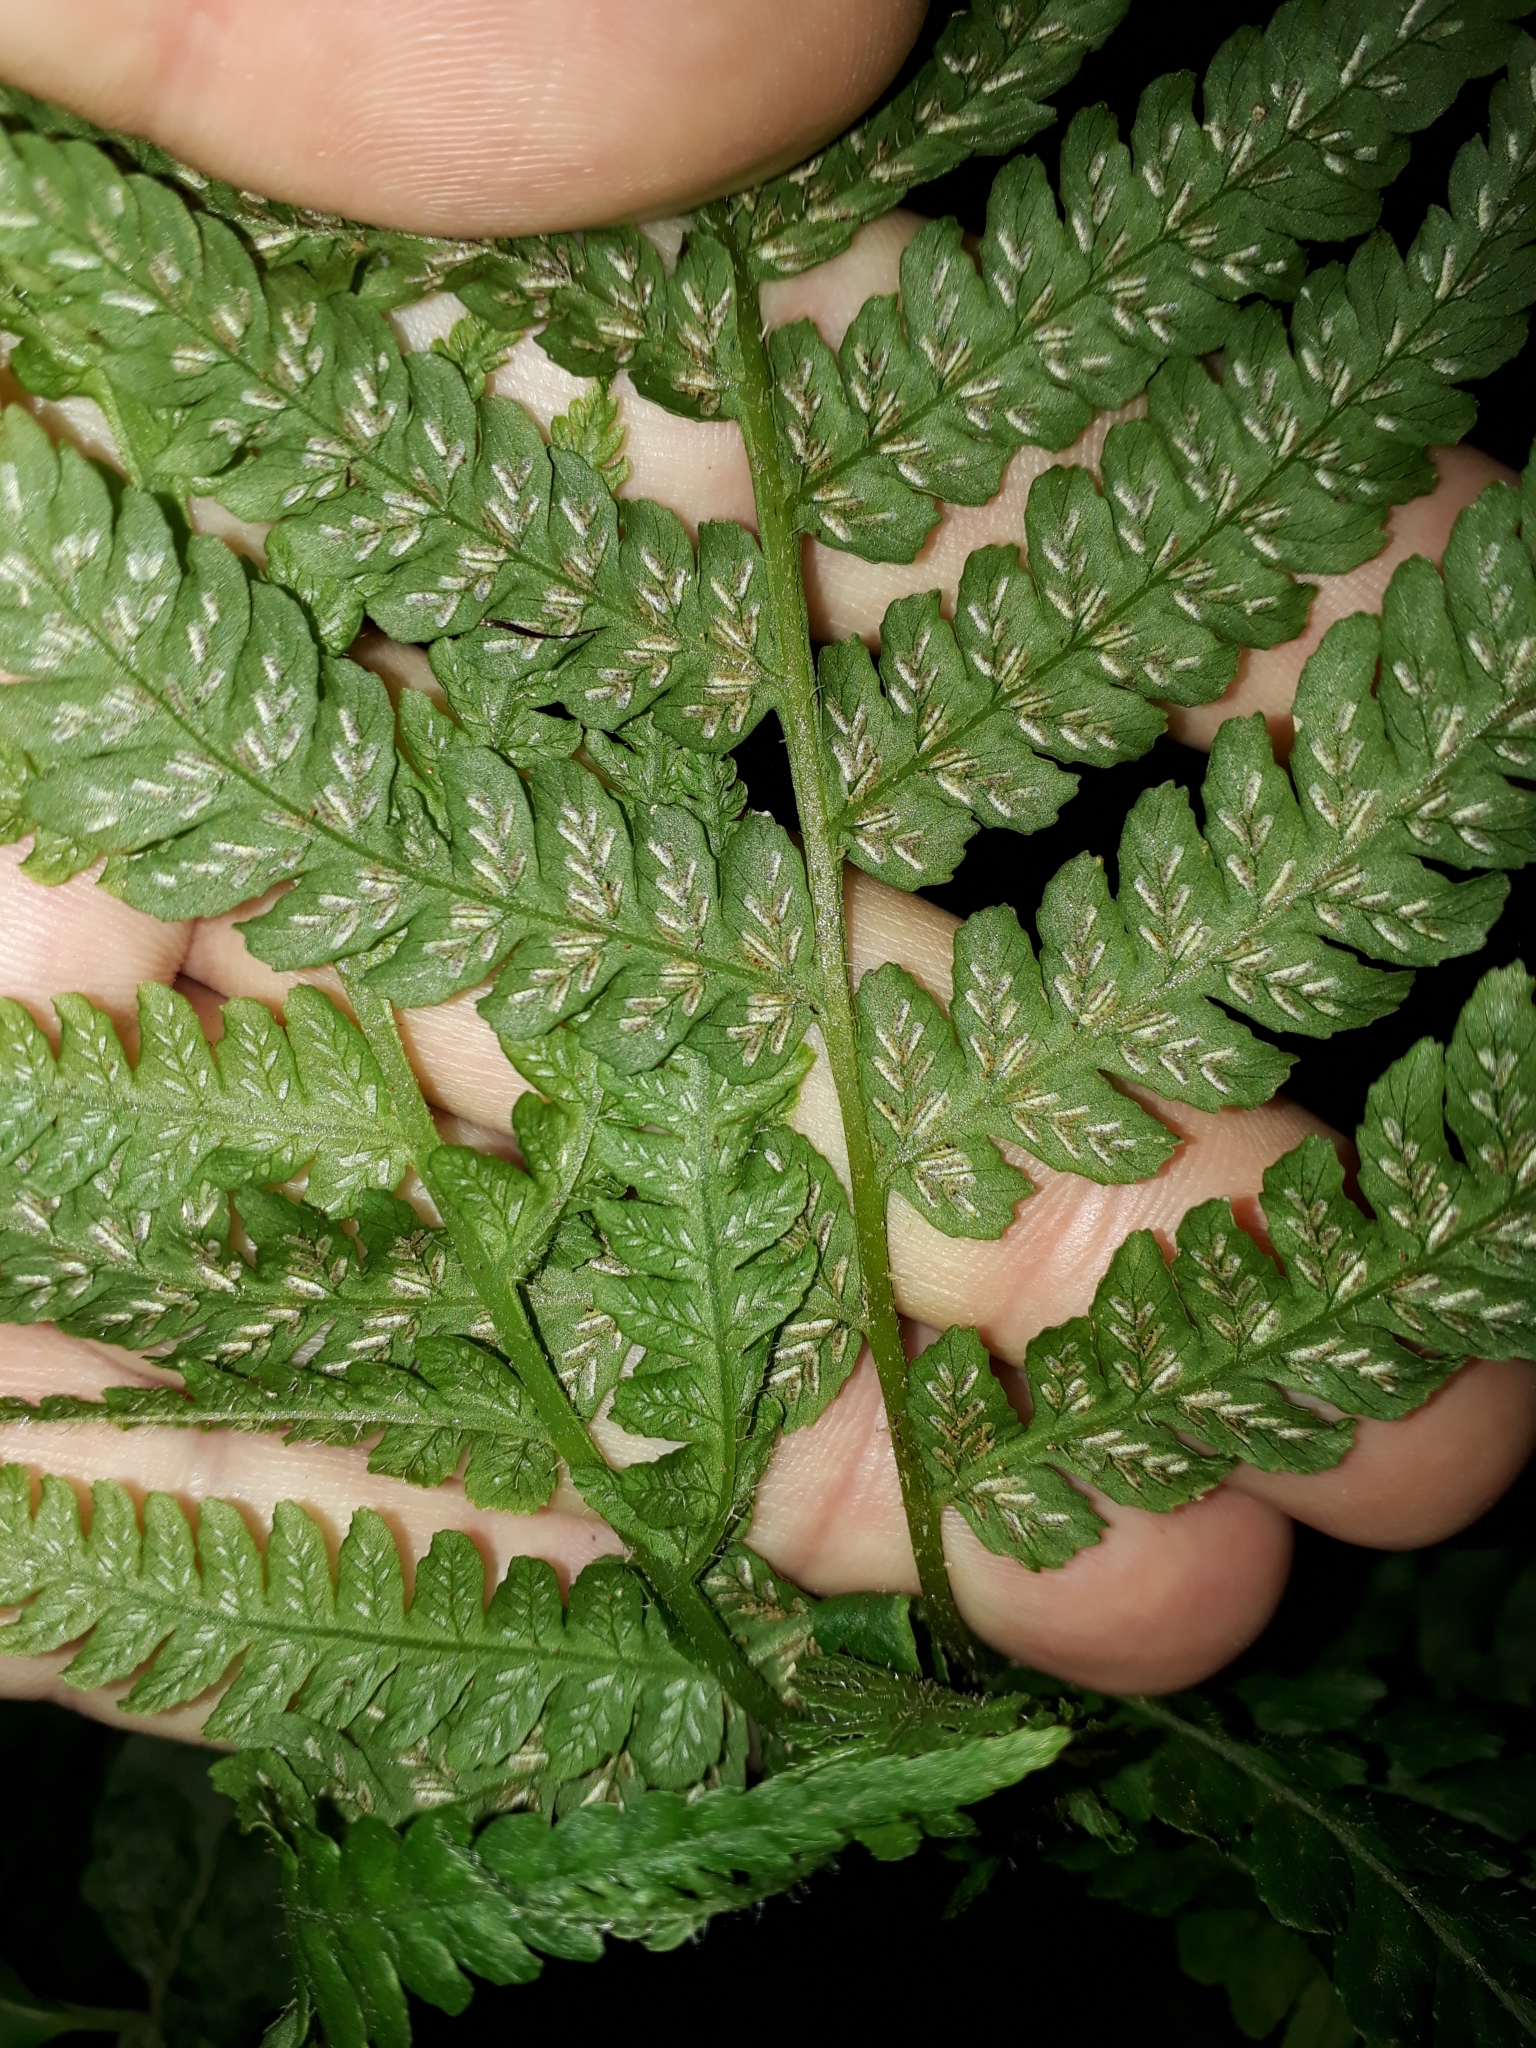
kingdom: Plantae
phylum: Tracheophyta
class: Polypodiopsida
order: Polypodiales
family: Athyriaceae
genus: Deparia
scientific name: Deparia petersenii
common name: Japanese false spleenwort
